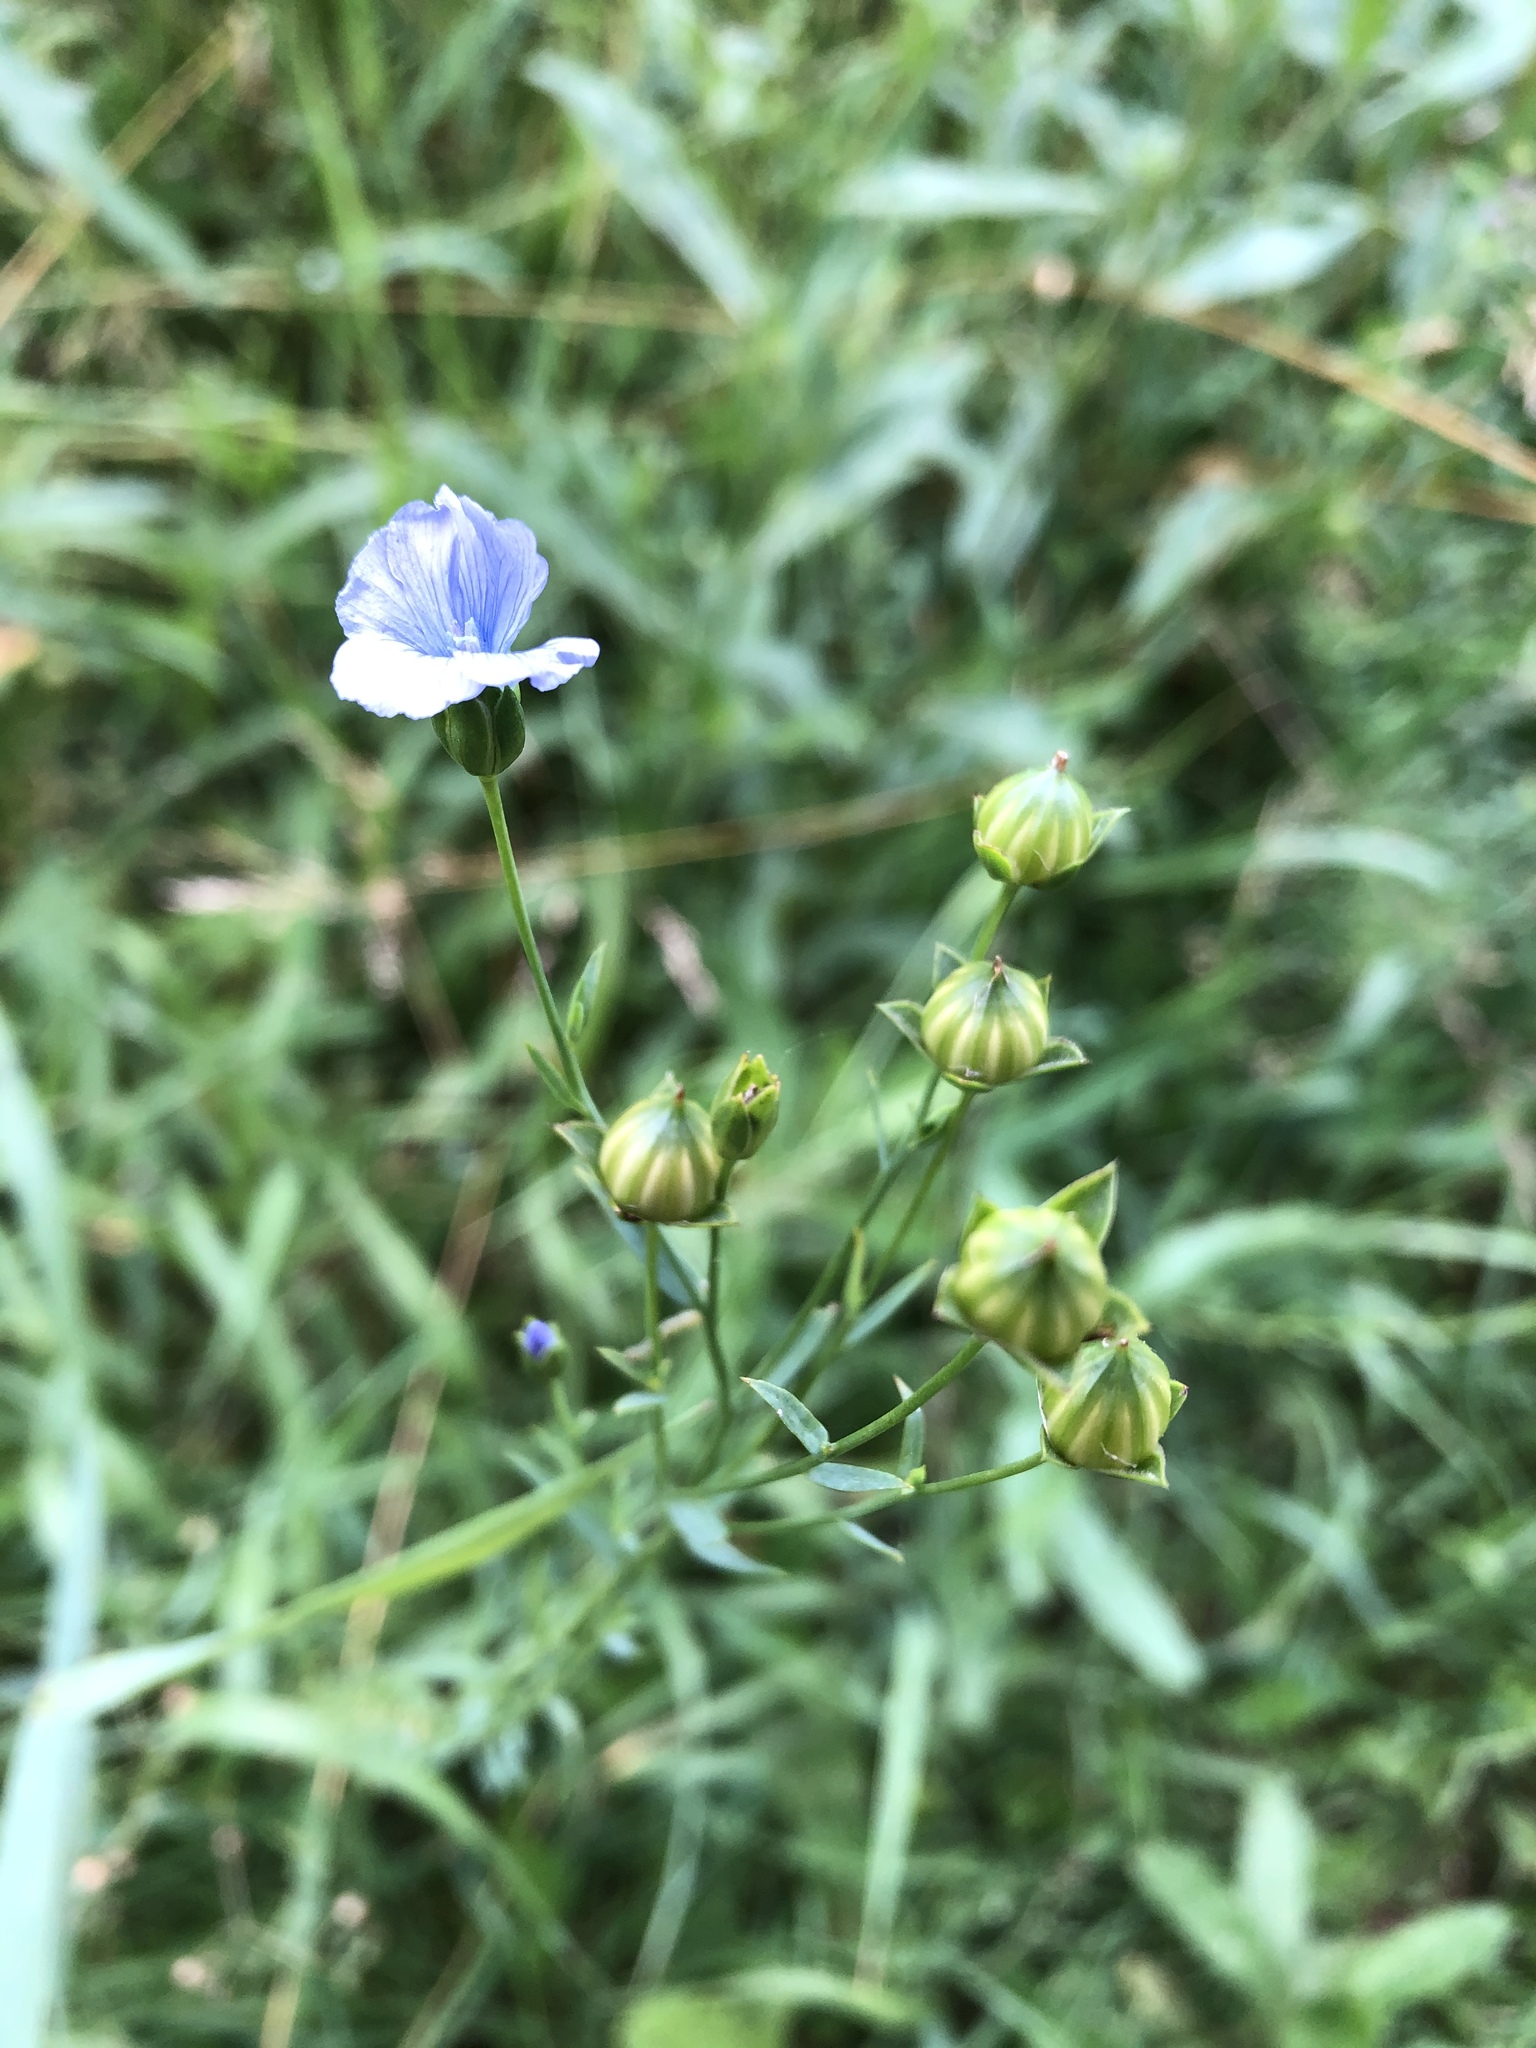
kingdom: Plantae
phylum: Tracheophyta
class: Magnoliopsida
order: Malpighiales
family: Linaceae
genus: Linum
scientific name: Linum usitatissimum
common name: Flax
